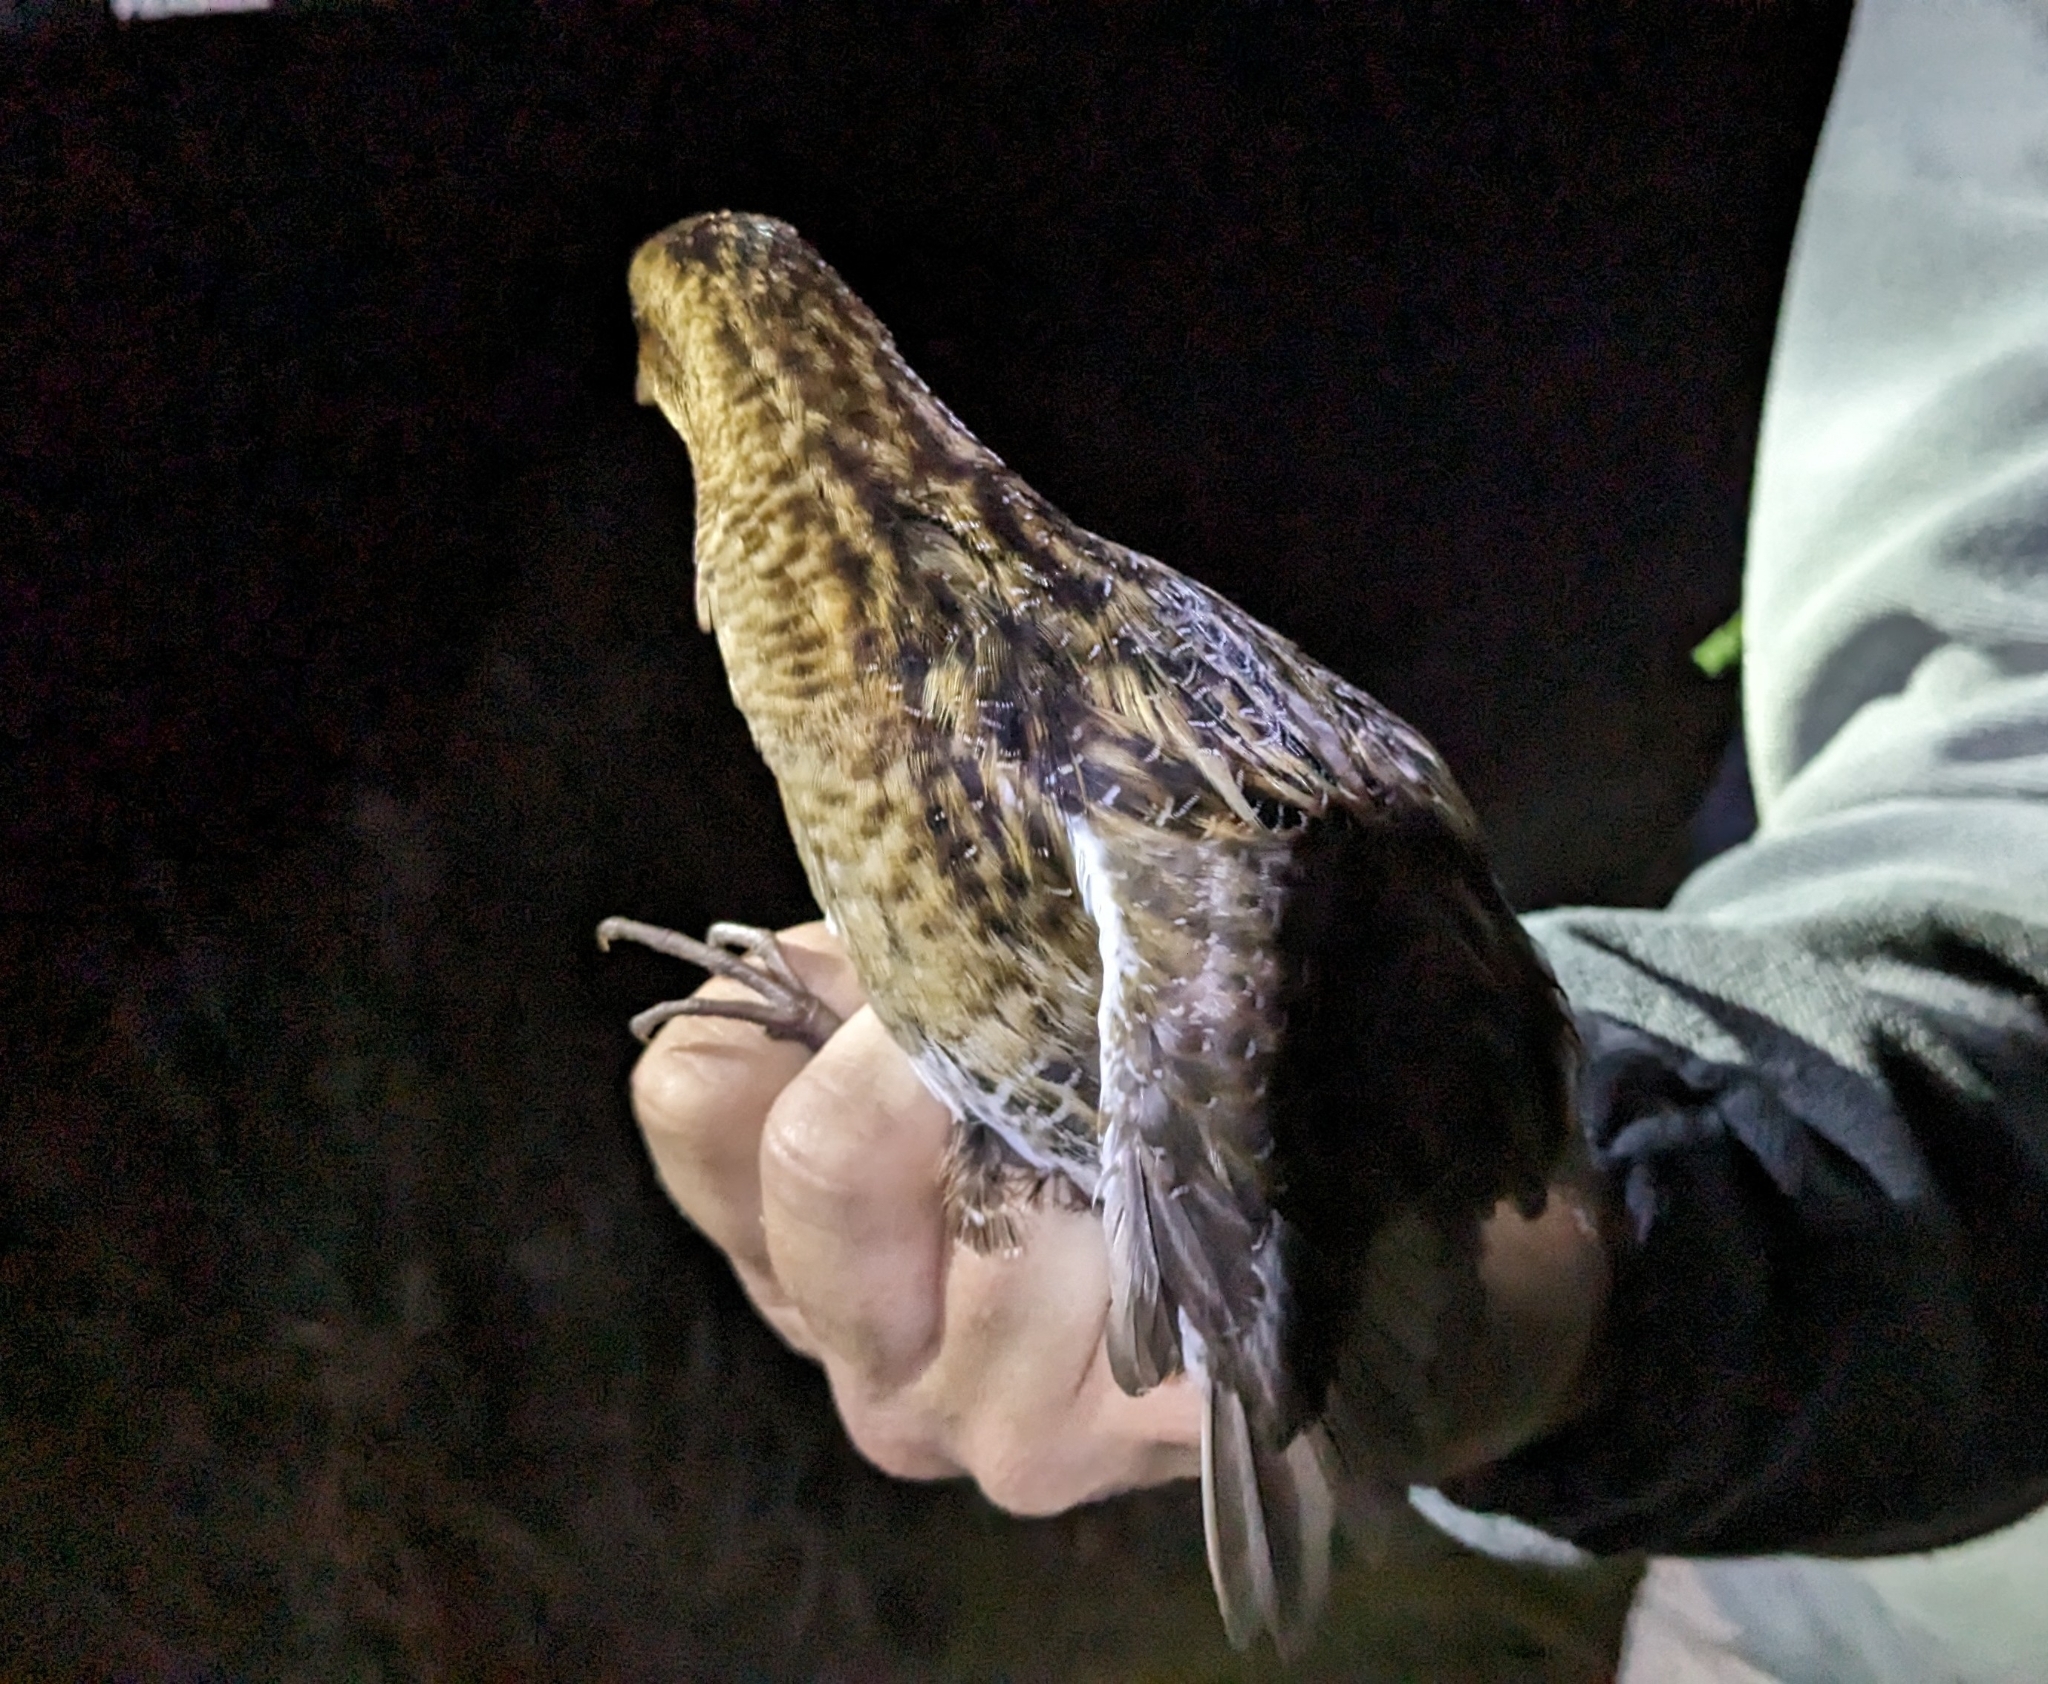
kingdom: Animalia
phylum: Chordata
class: Aves
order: Gruiformes
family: Rallidae
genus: Coturnicops
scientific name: Coturnicops noveboracensis
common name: Yellow rail
